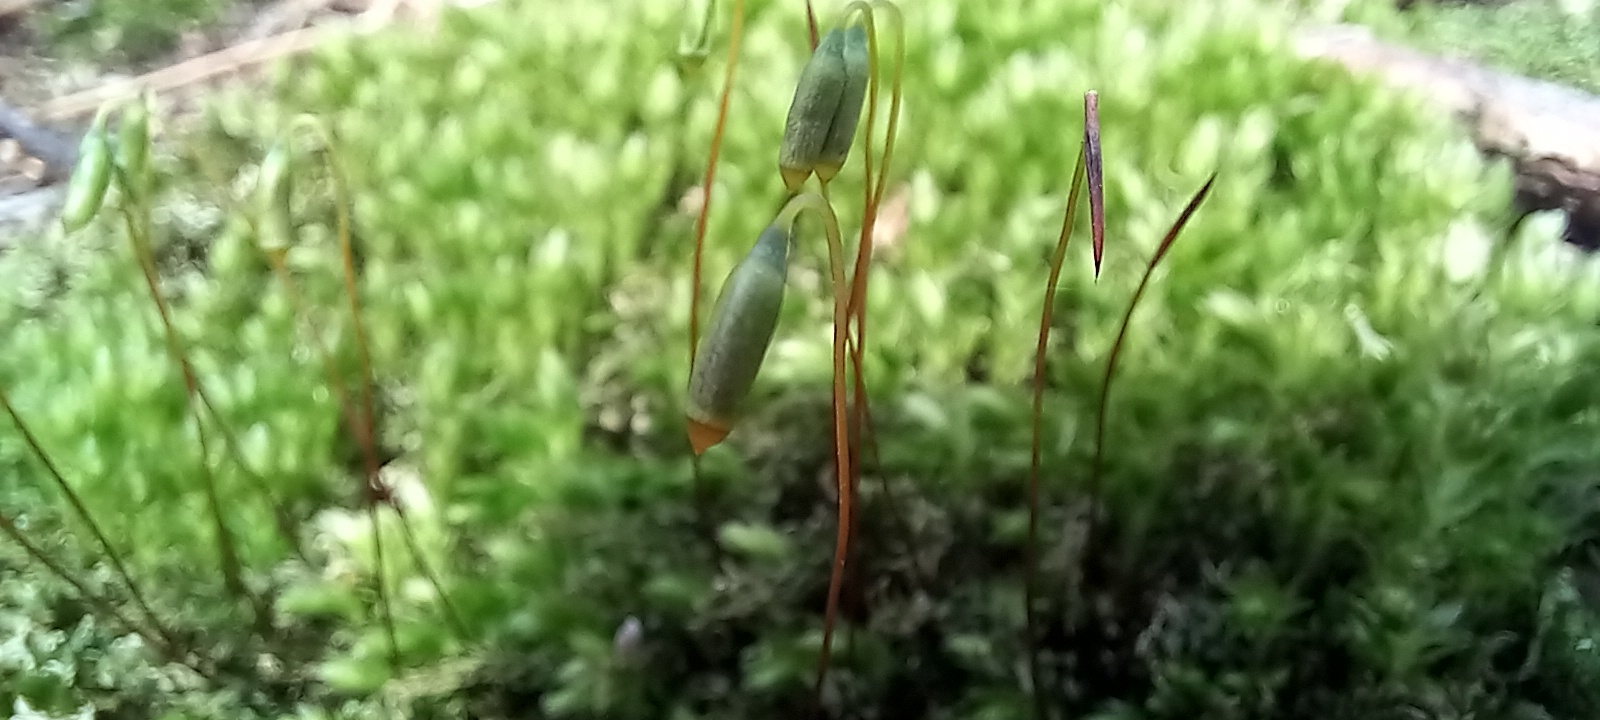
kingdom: Plantae
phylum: Bryophyta
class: Bryopsida
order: Bryales
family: Mniaceae
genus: Mnium
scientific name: Mnium hornum
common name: Swan's-neck leafy moss
